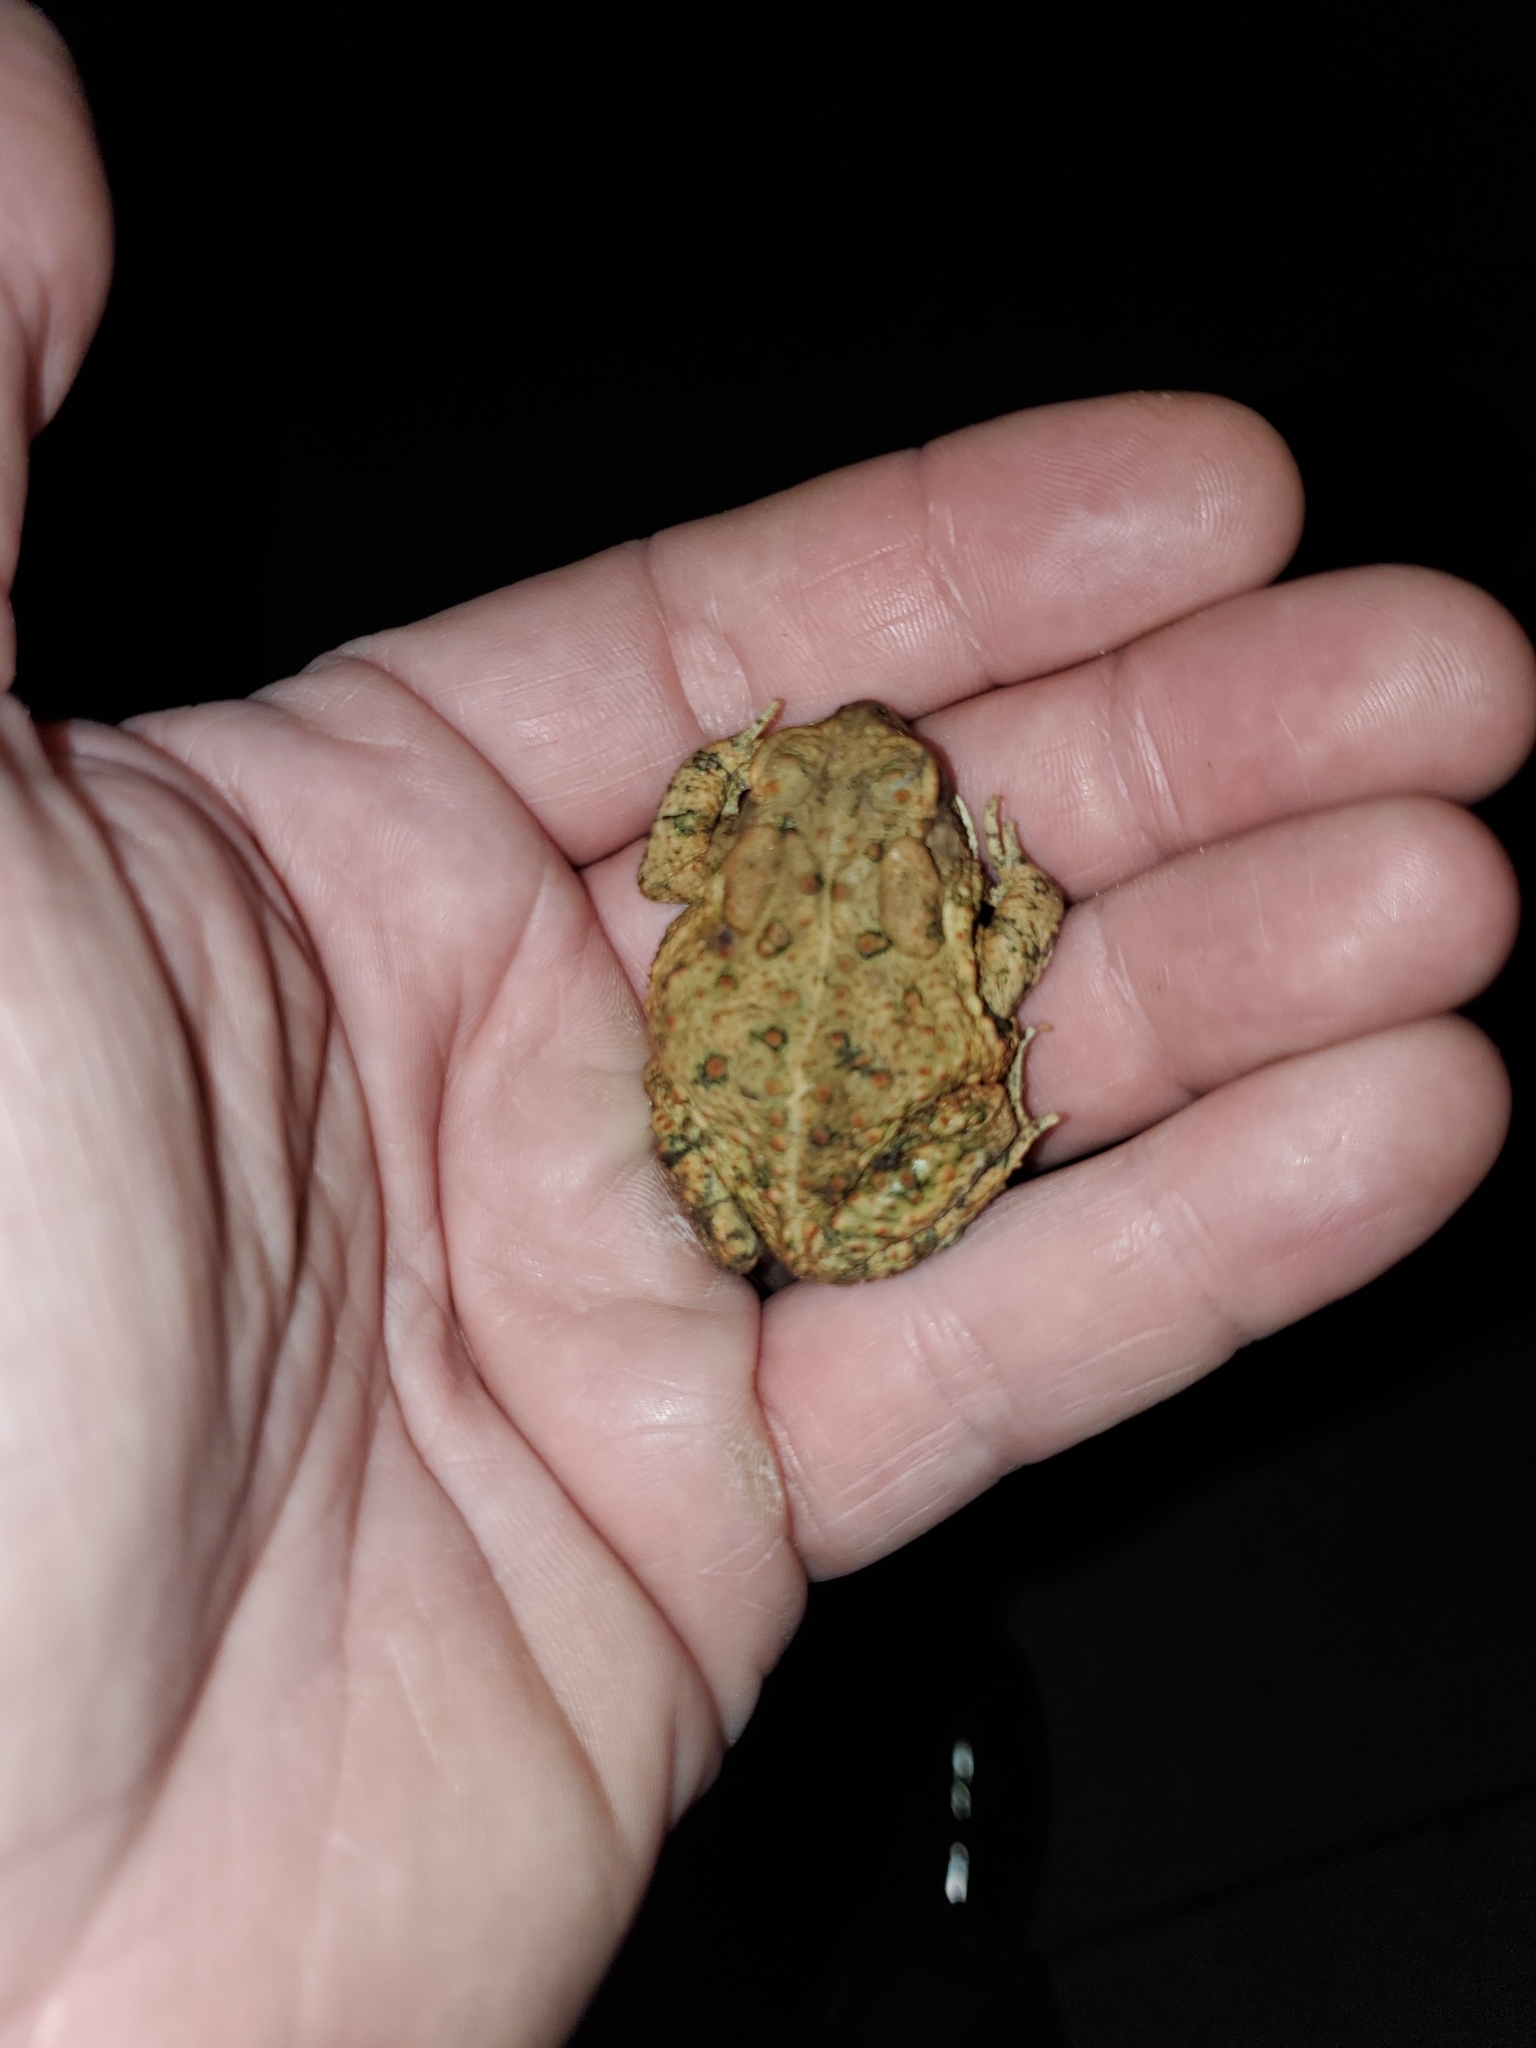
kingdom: Animalia
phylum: Chordata
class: Amphibia
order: Anura
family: Bufonidae
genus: Anaxyrus
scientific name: Anaxyrus fowleri
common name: Fowler's toad
